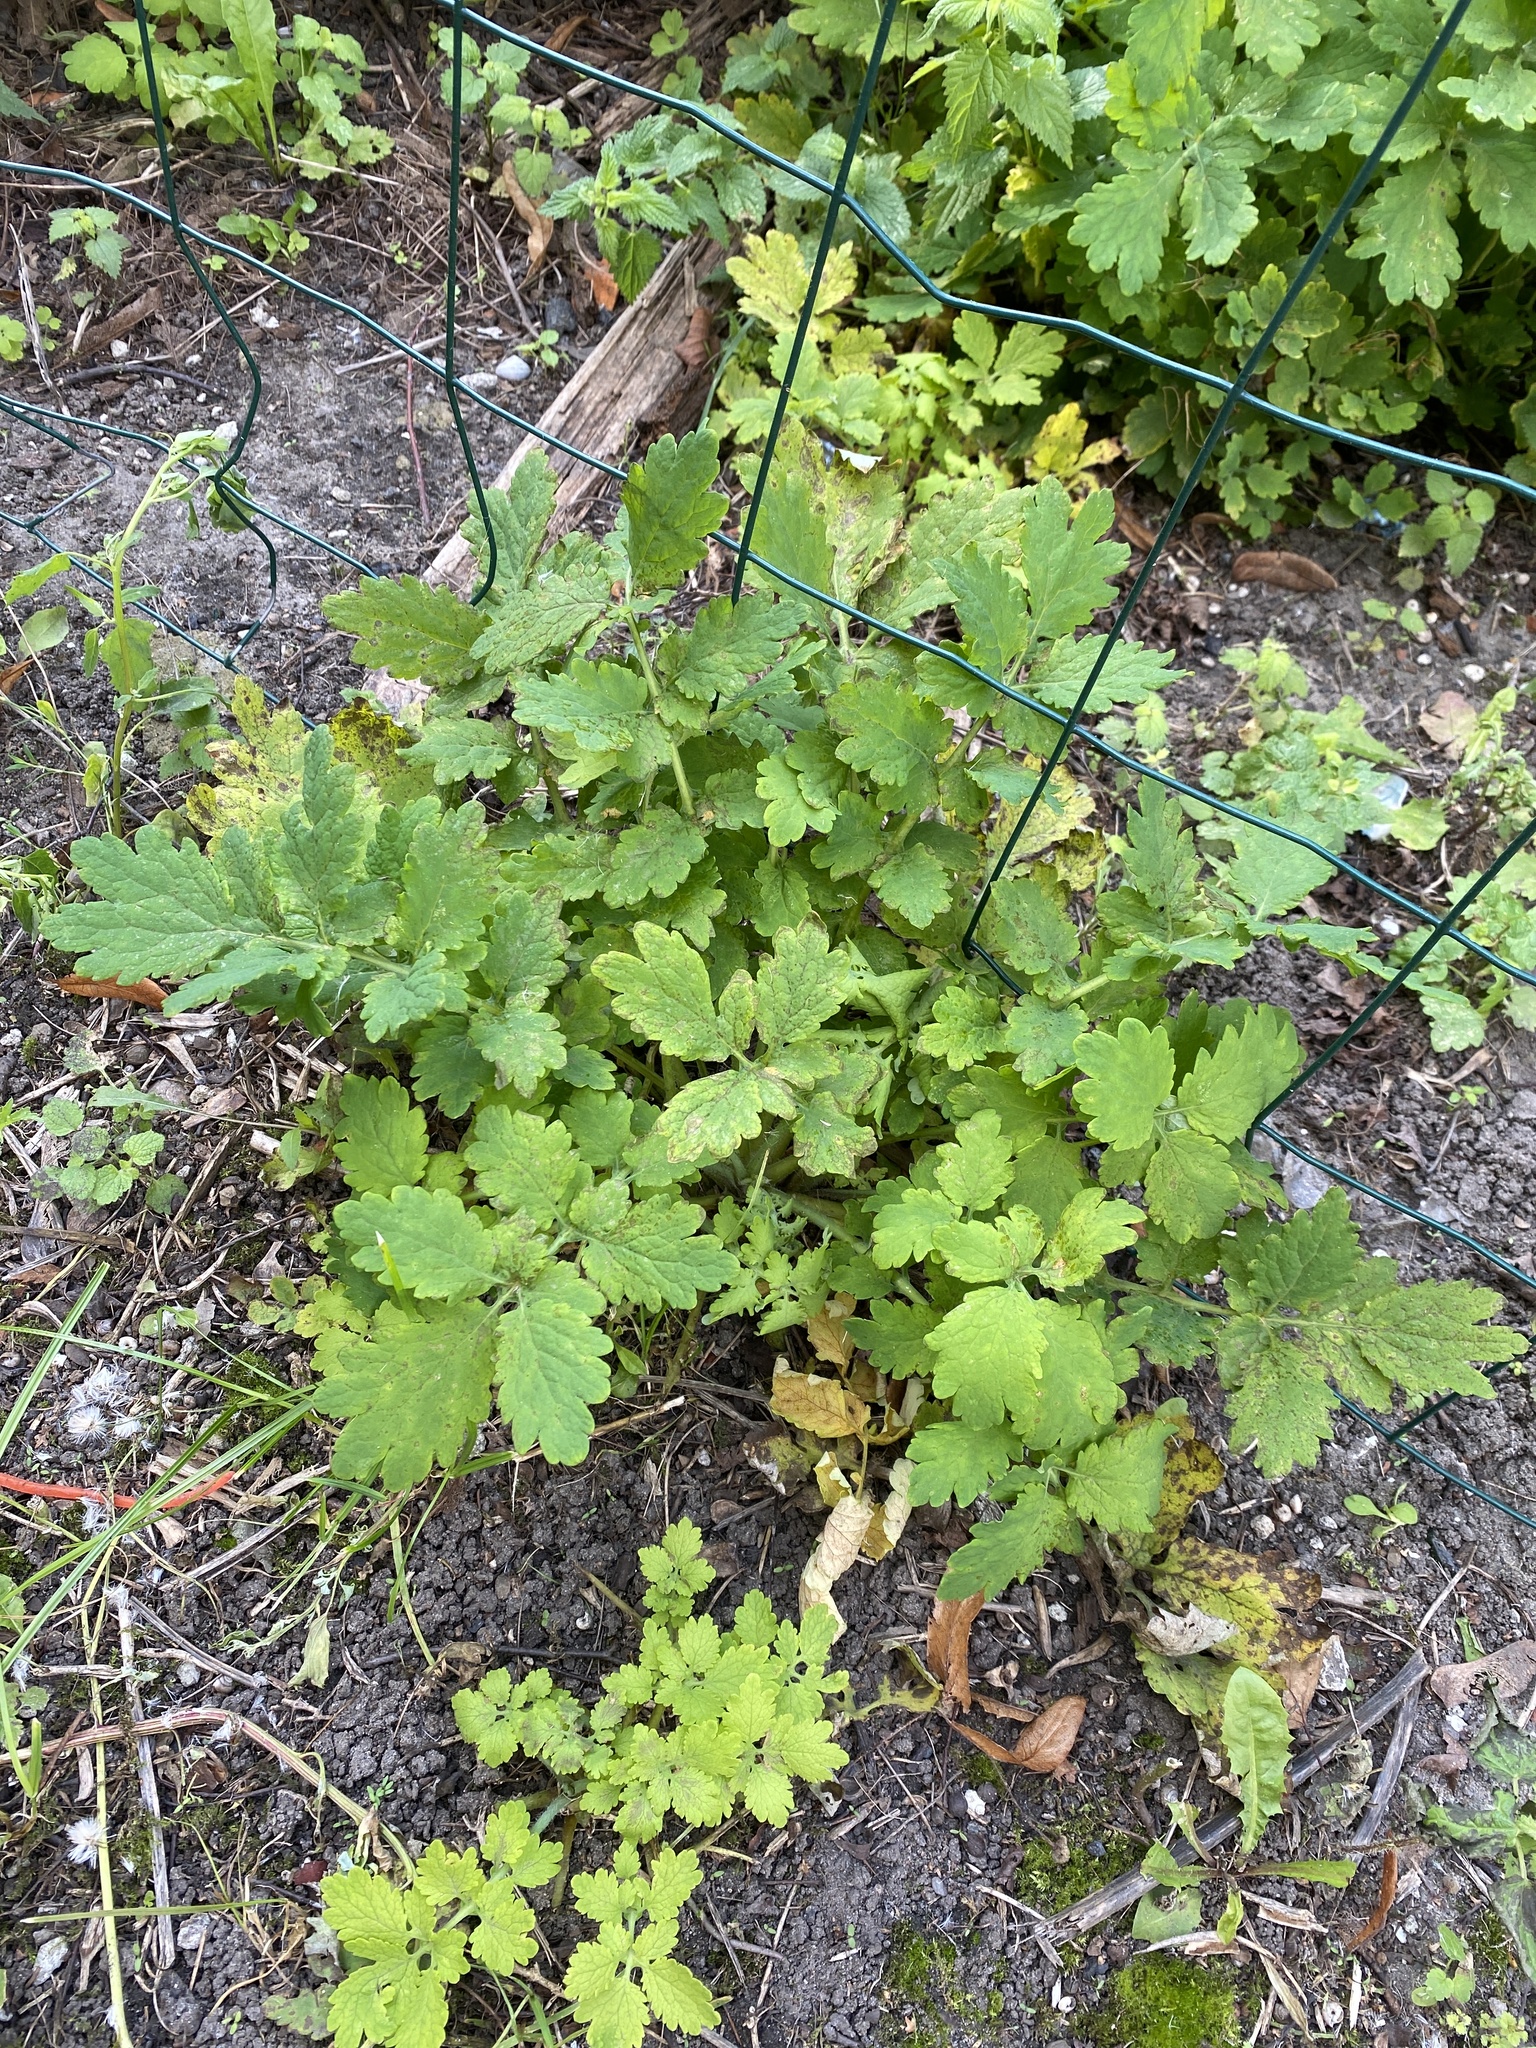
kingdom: Plantae
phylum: Tracheophyta
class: Magnoliopsida
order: Ranunculales
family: Papaveraceae
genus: Chelidonium
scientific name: Chelidonium majus
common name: Greater celandine
